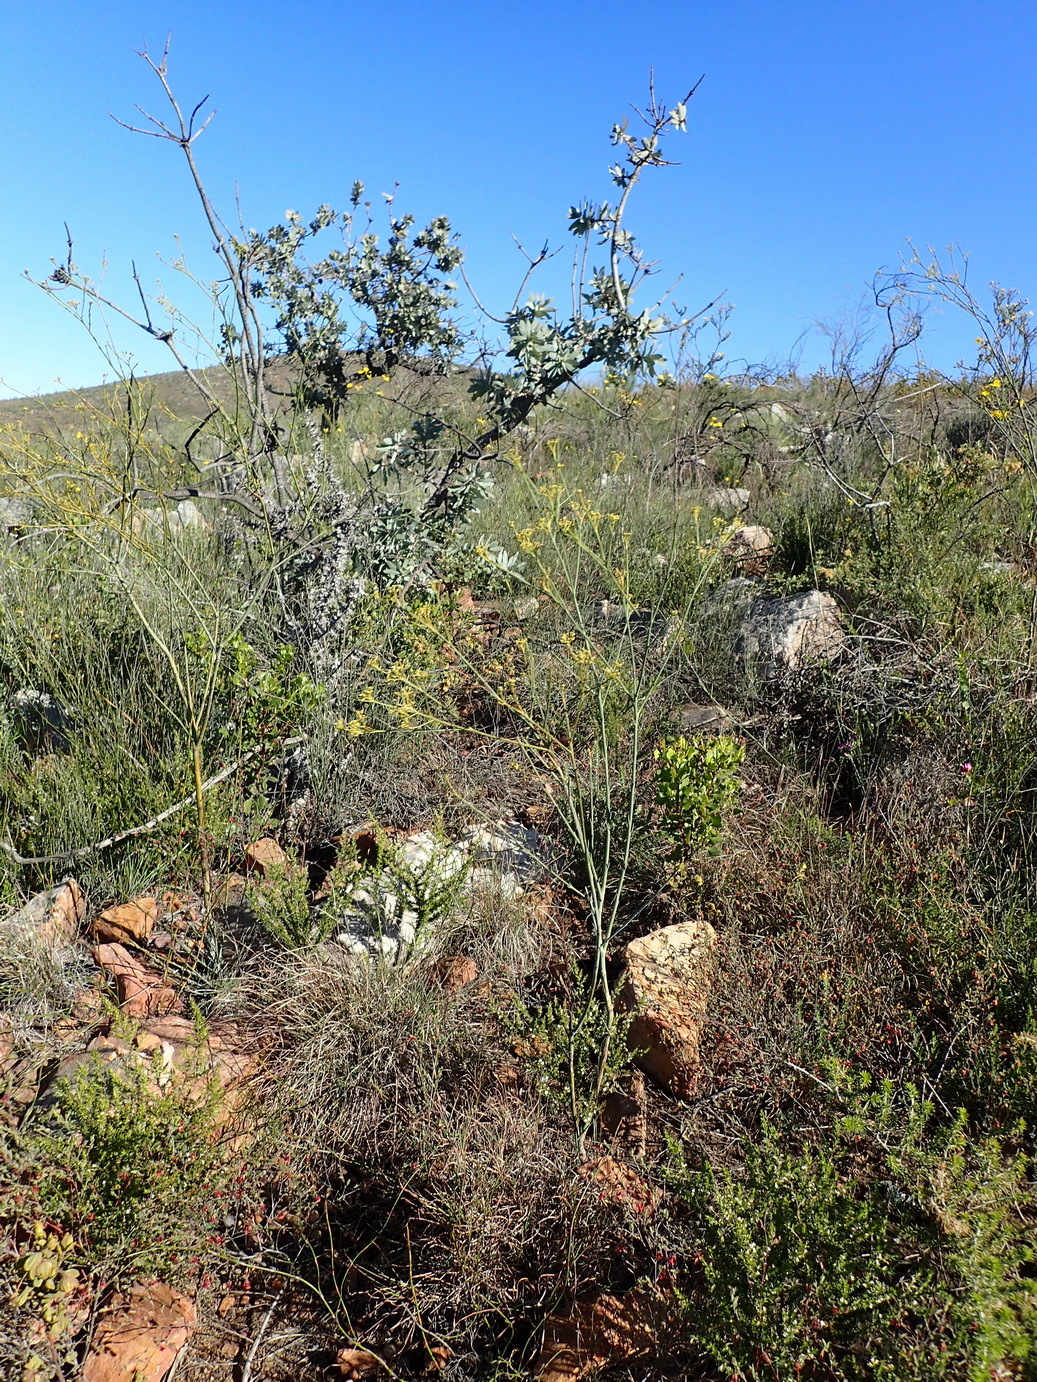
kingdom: Plantae
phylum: Tracheophyta
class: Magnoliopsida
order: Santalales
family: Thesiaceae
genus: Thesium
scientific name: Thesium strictum
